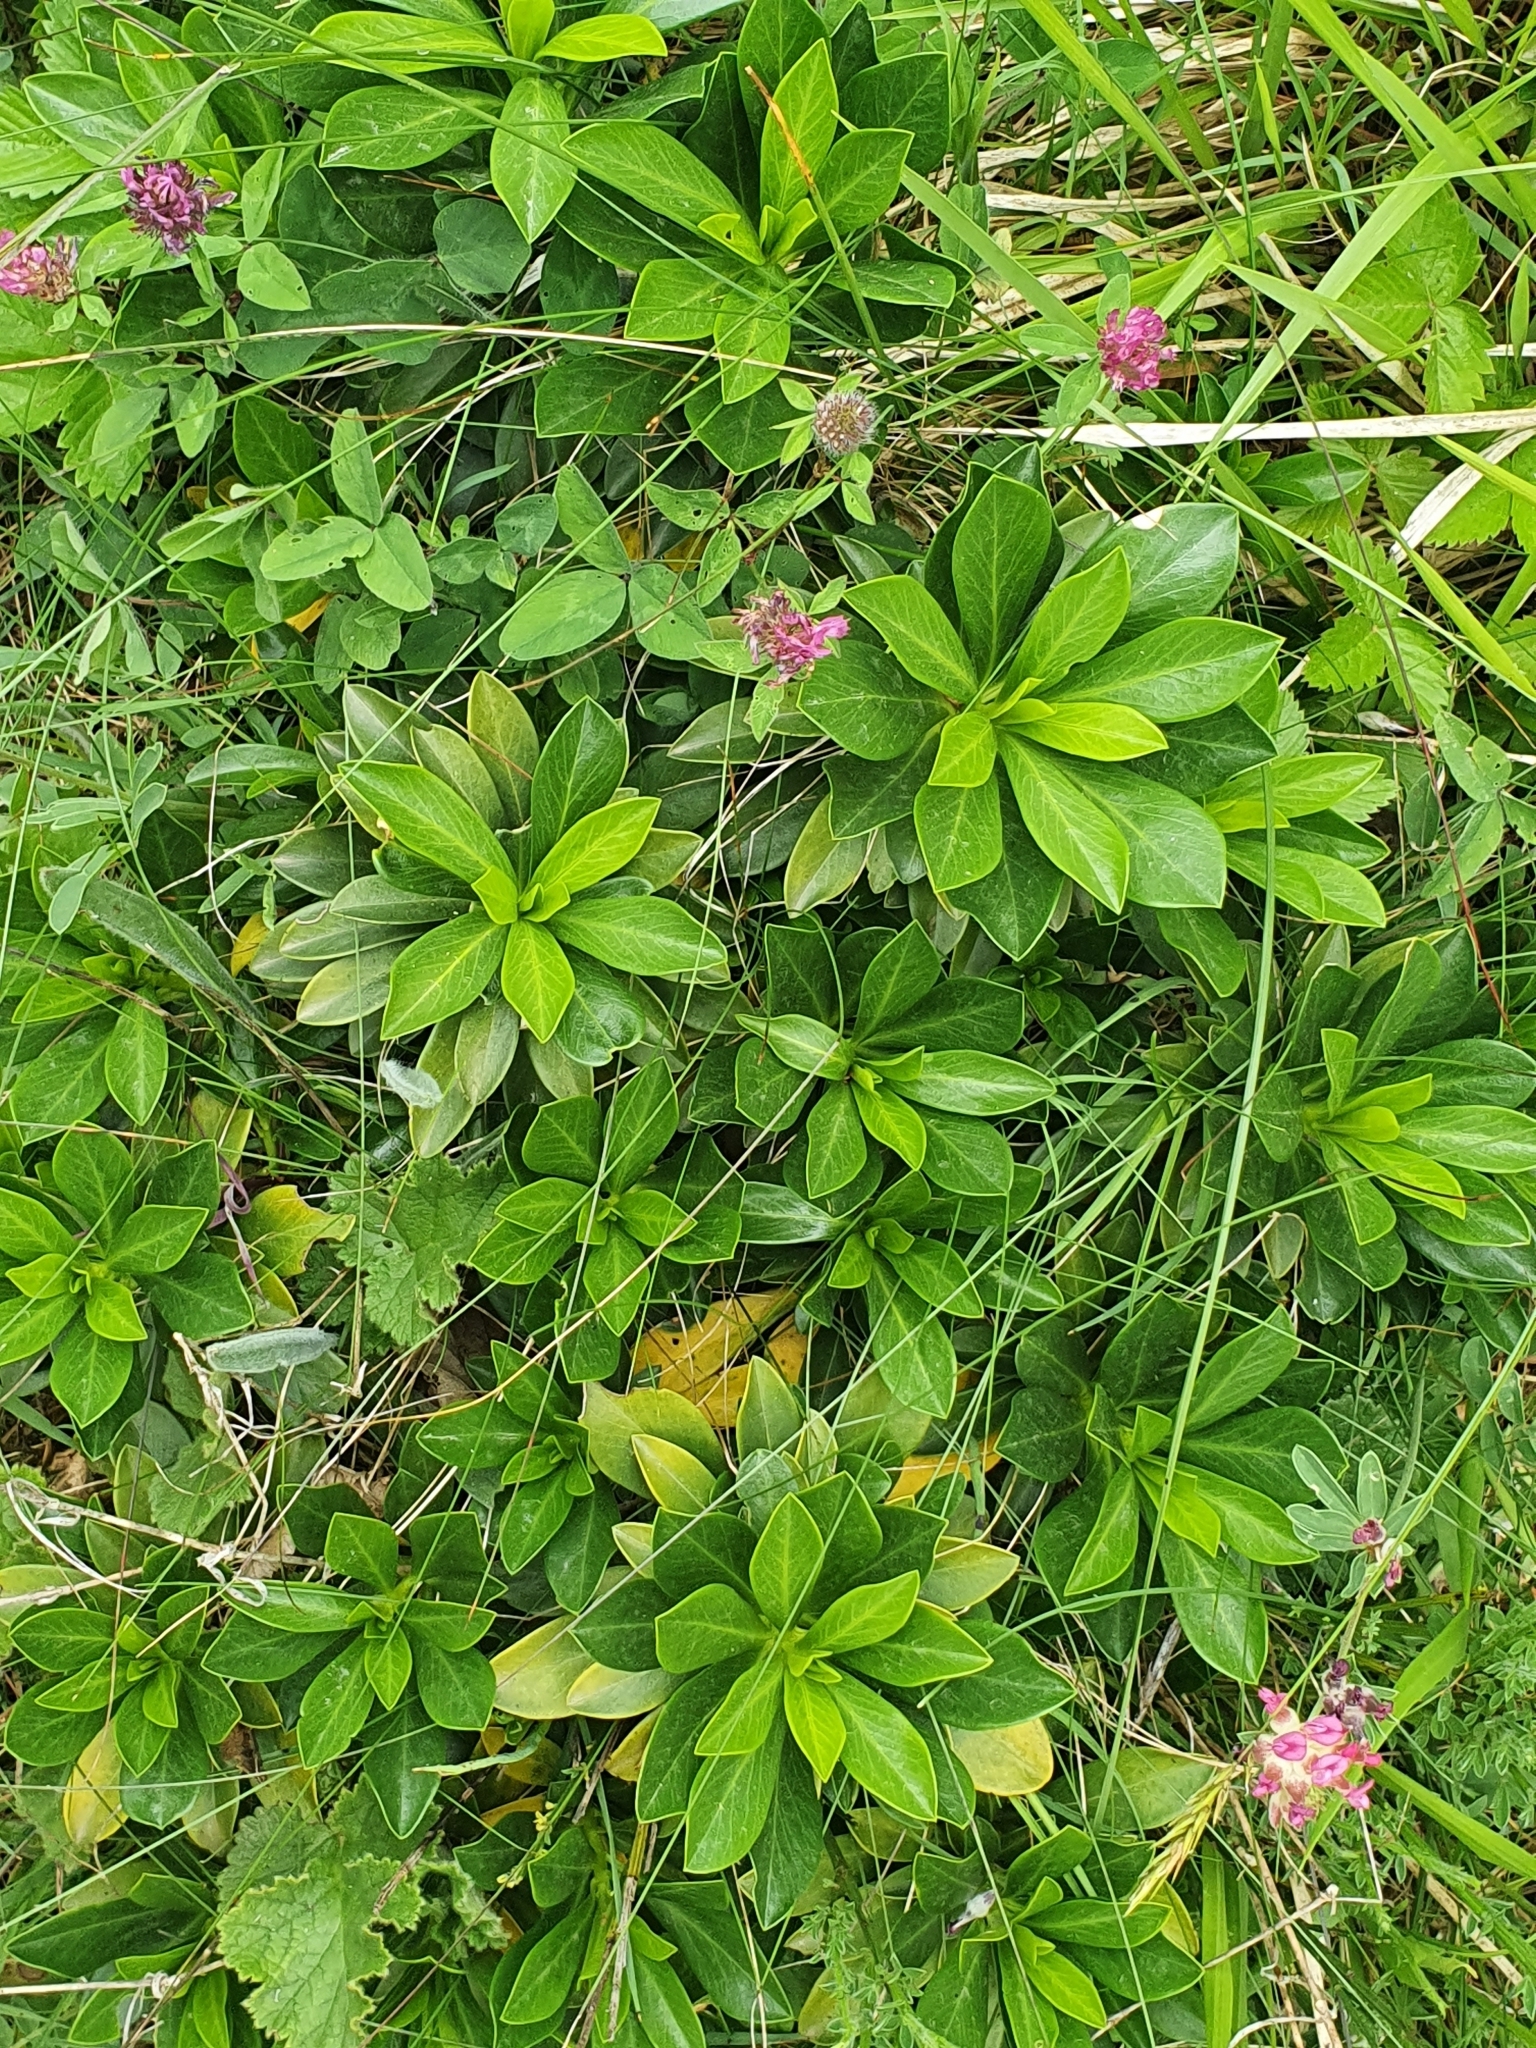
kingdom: Plantae
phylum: Tracheophyta
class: Magnoliopsida
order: Malvales
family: Thymelaeaceae
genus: Daphne
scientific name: Daphne laureola
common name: Spurge-laurel
